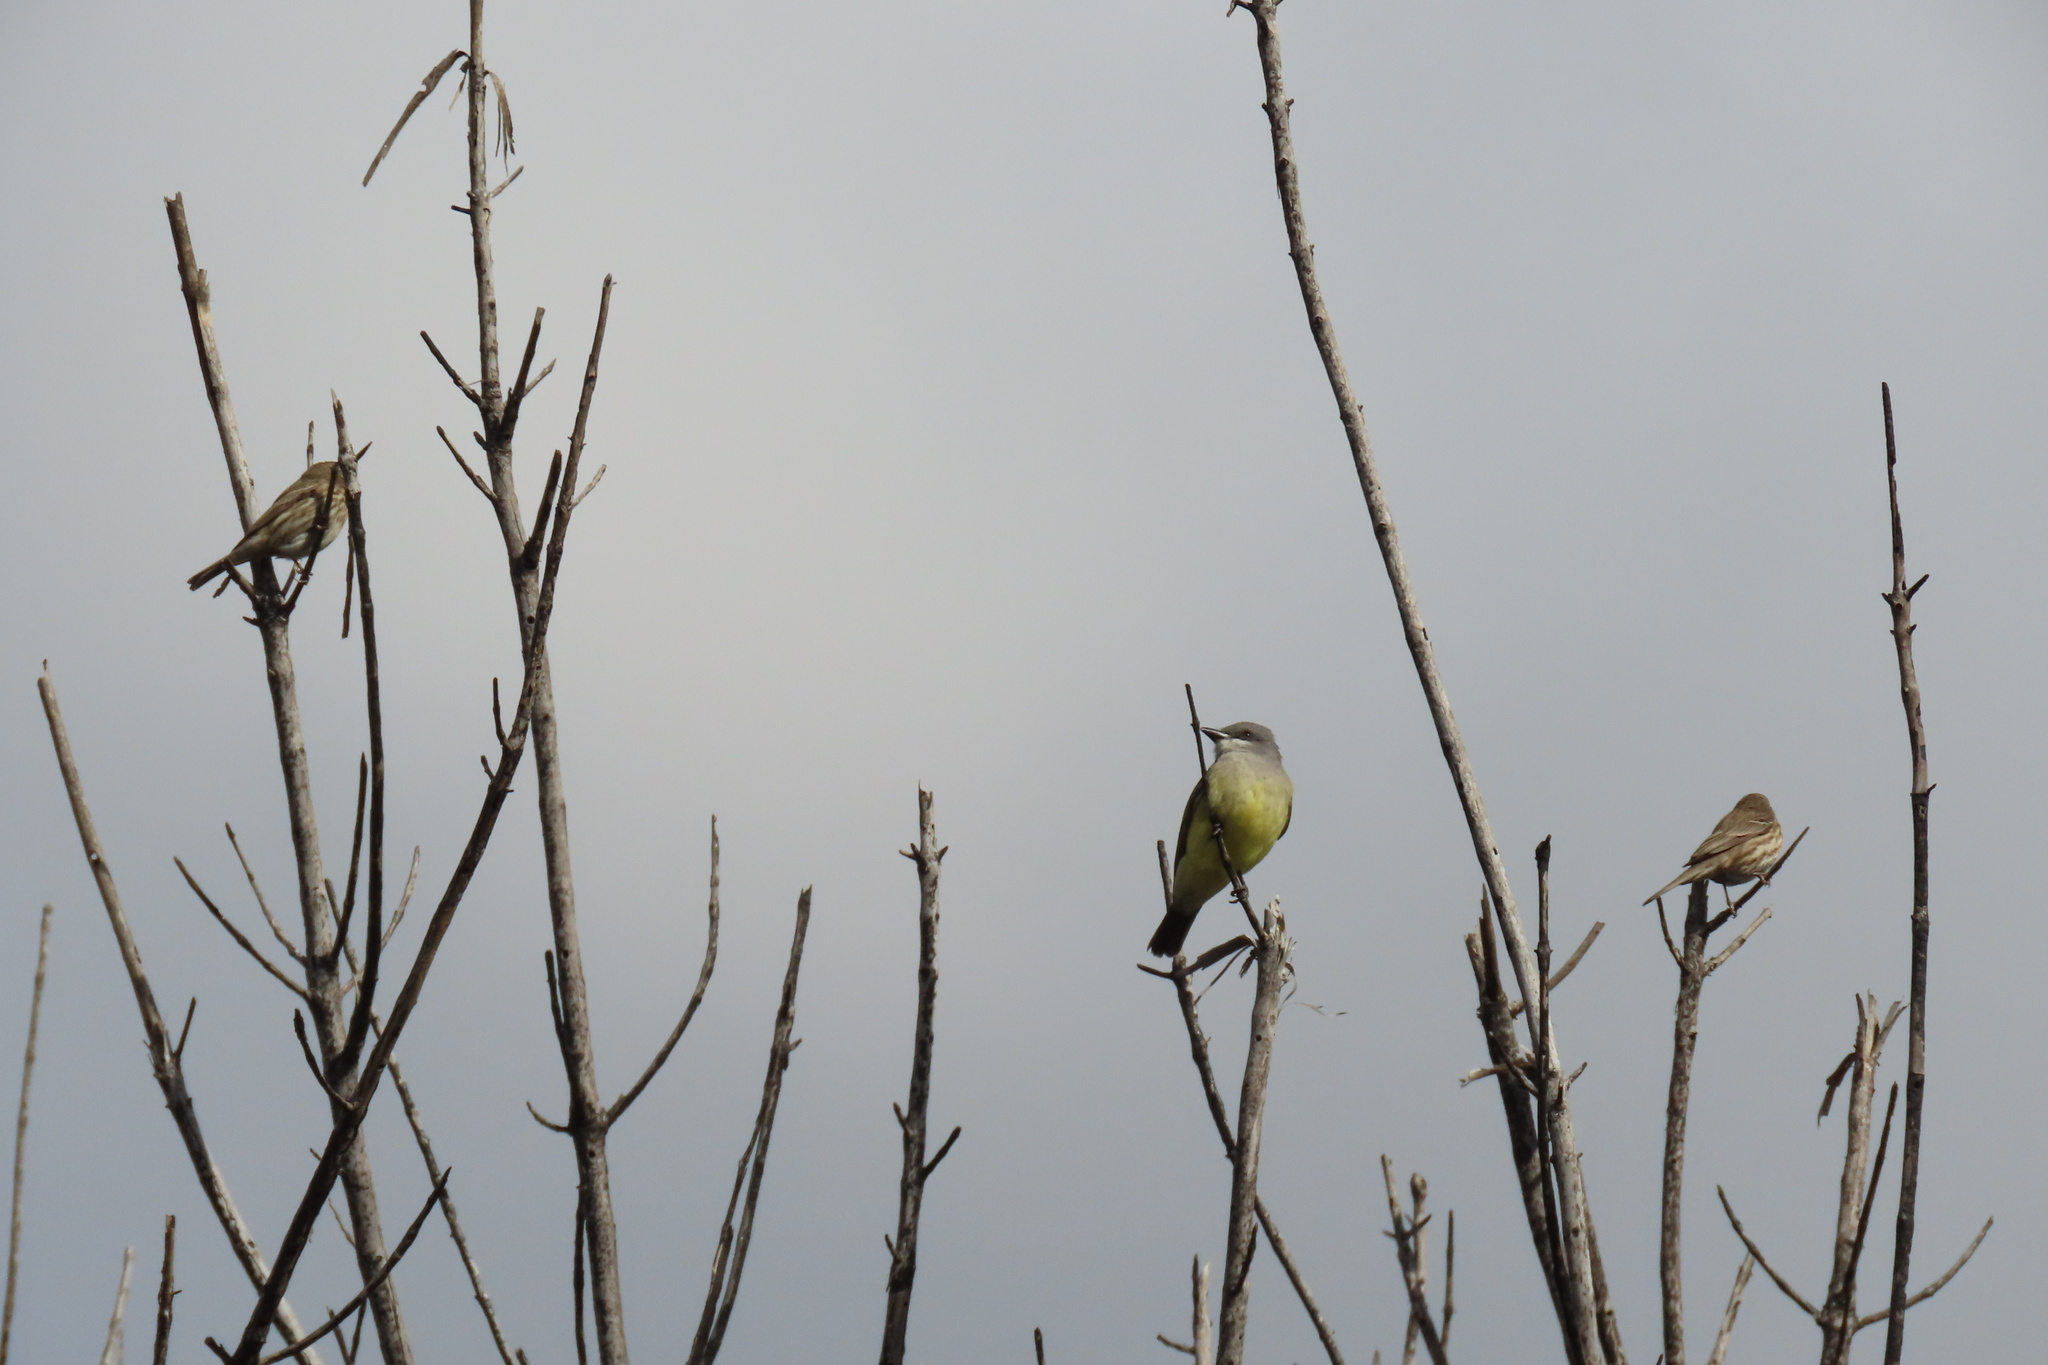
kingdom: Animalia
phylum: Chordata
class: Aves
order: Passeriformes
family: Tyrannidae
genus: Tyrannus
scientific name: Tyrannus vociferans
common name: Cassin's kingbird
